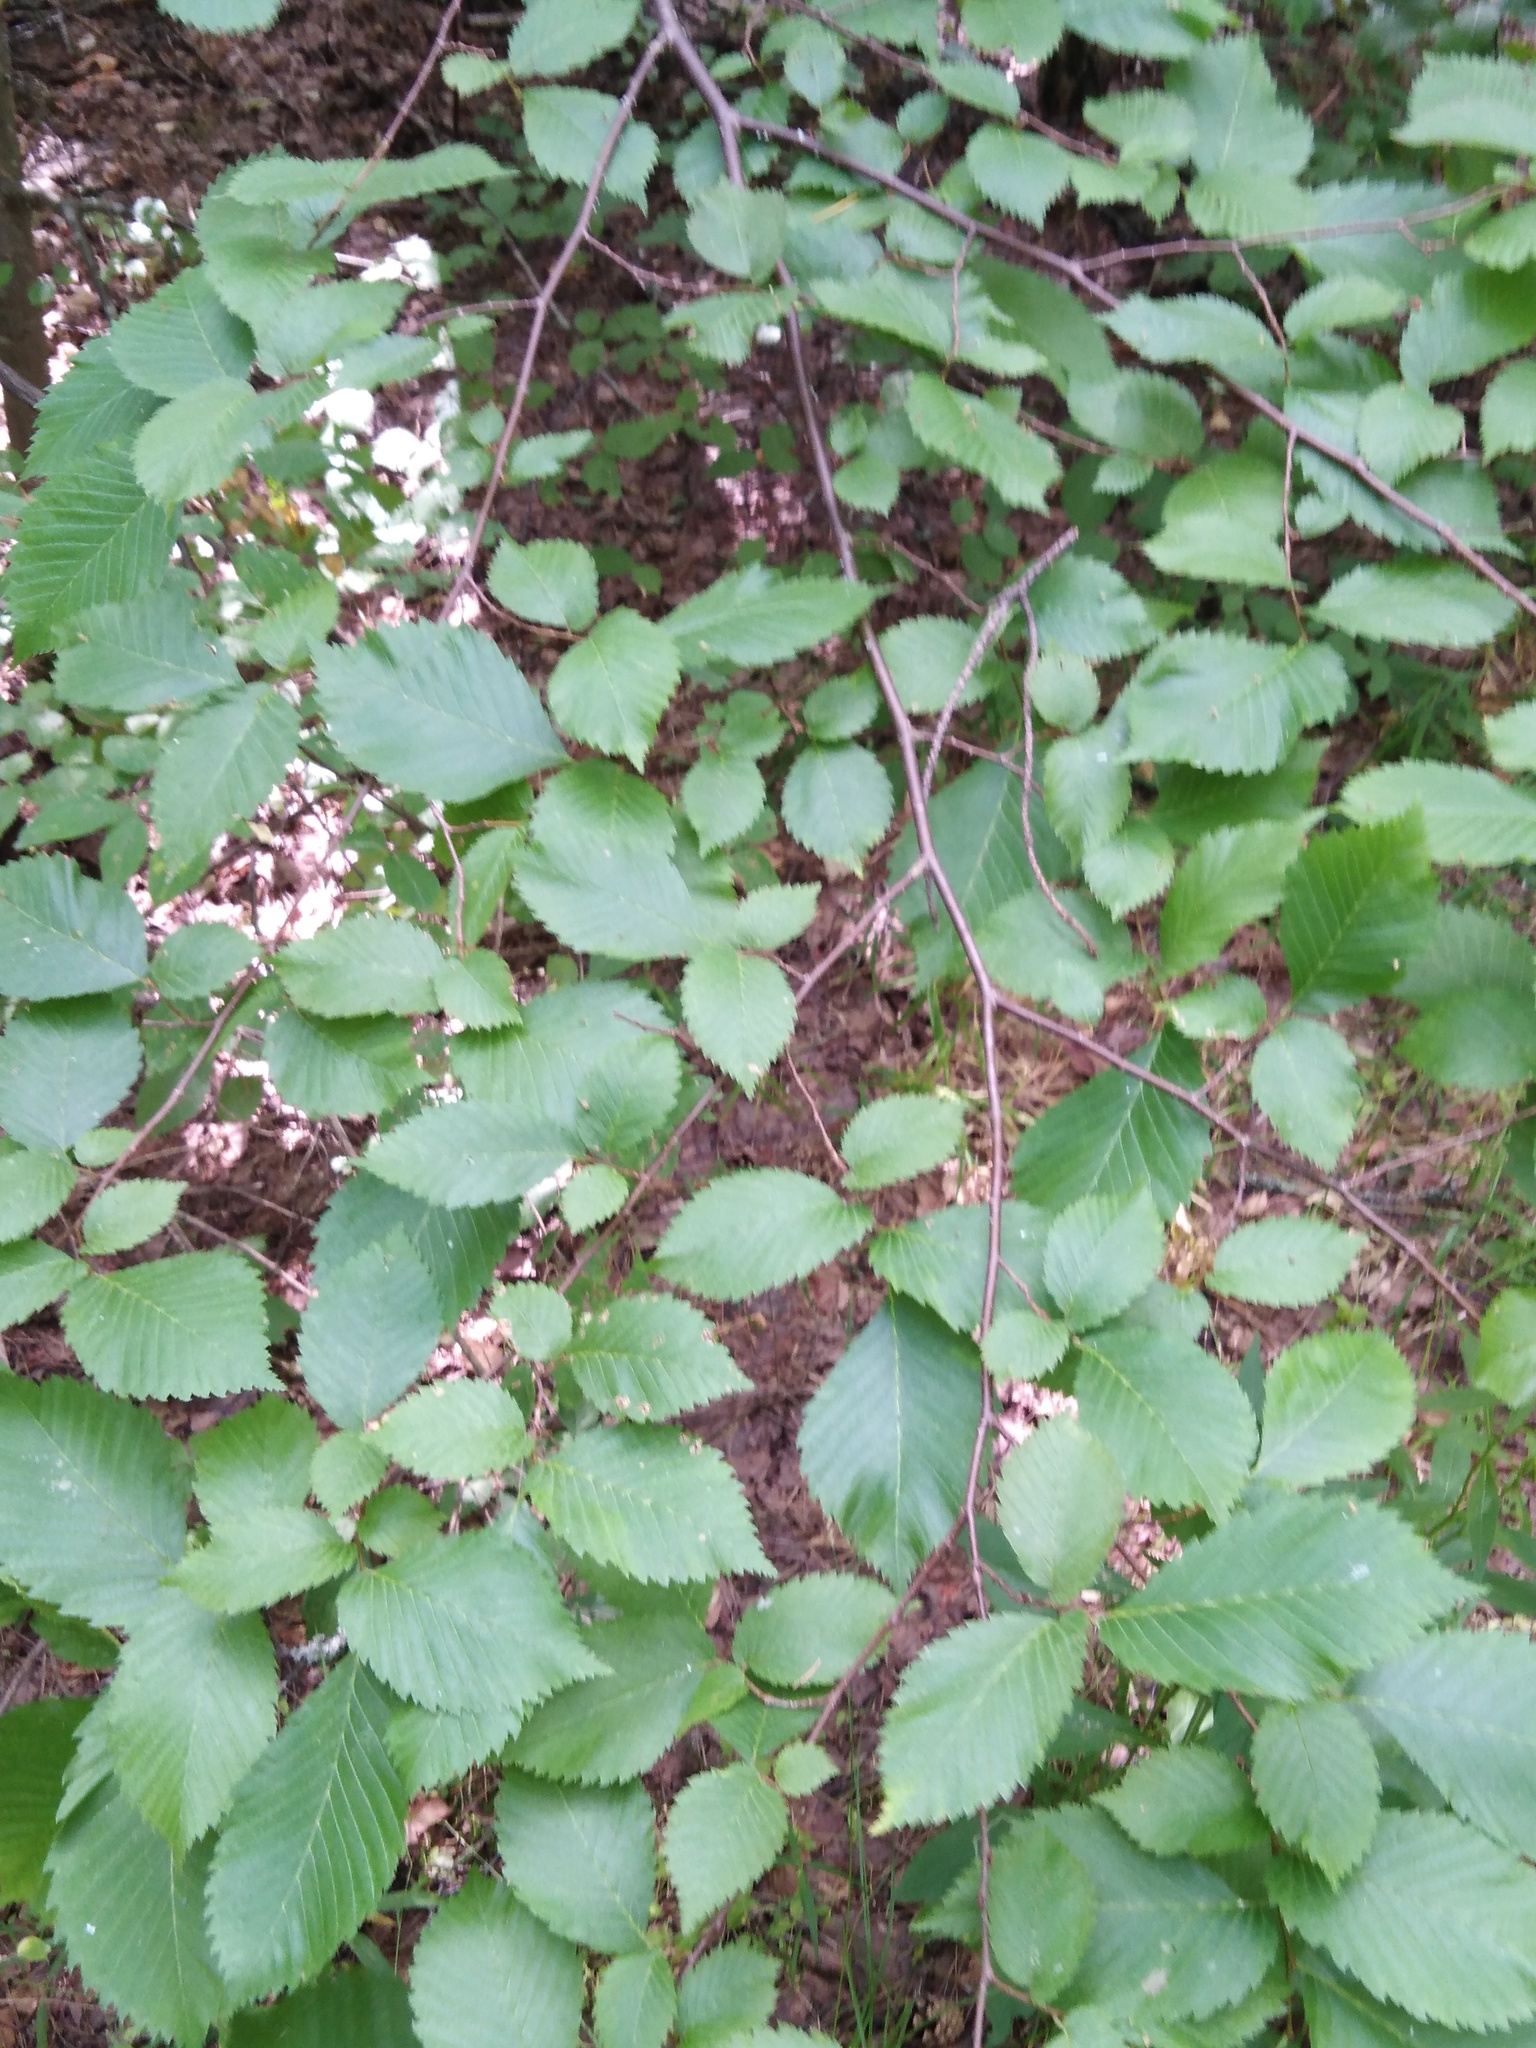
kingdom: Plantae
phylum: Tracheophyta
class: Magnoliopsida
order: Rosales
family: Ulmaceae
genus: Ulmus
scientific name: Ulmus laevis
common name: European white-elm
